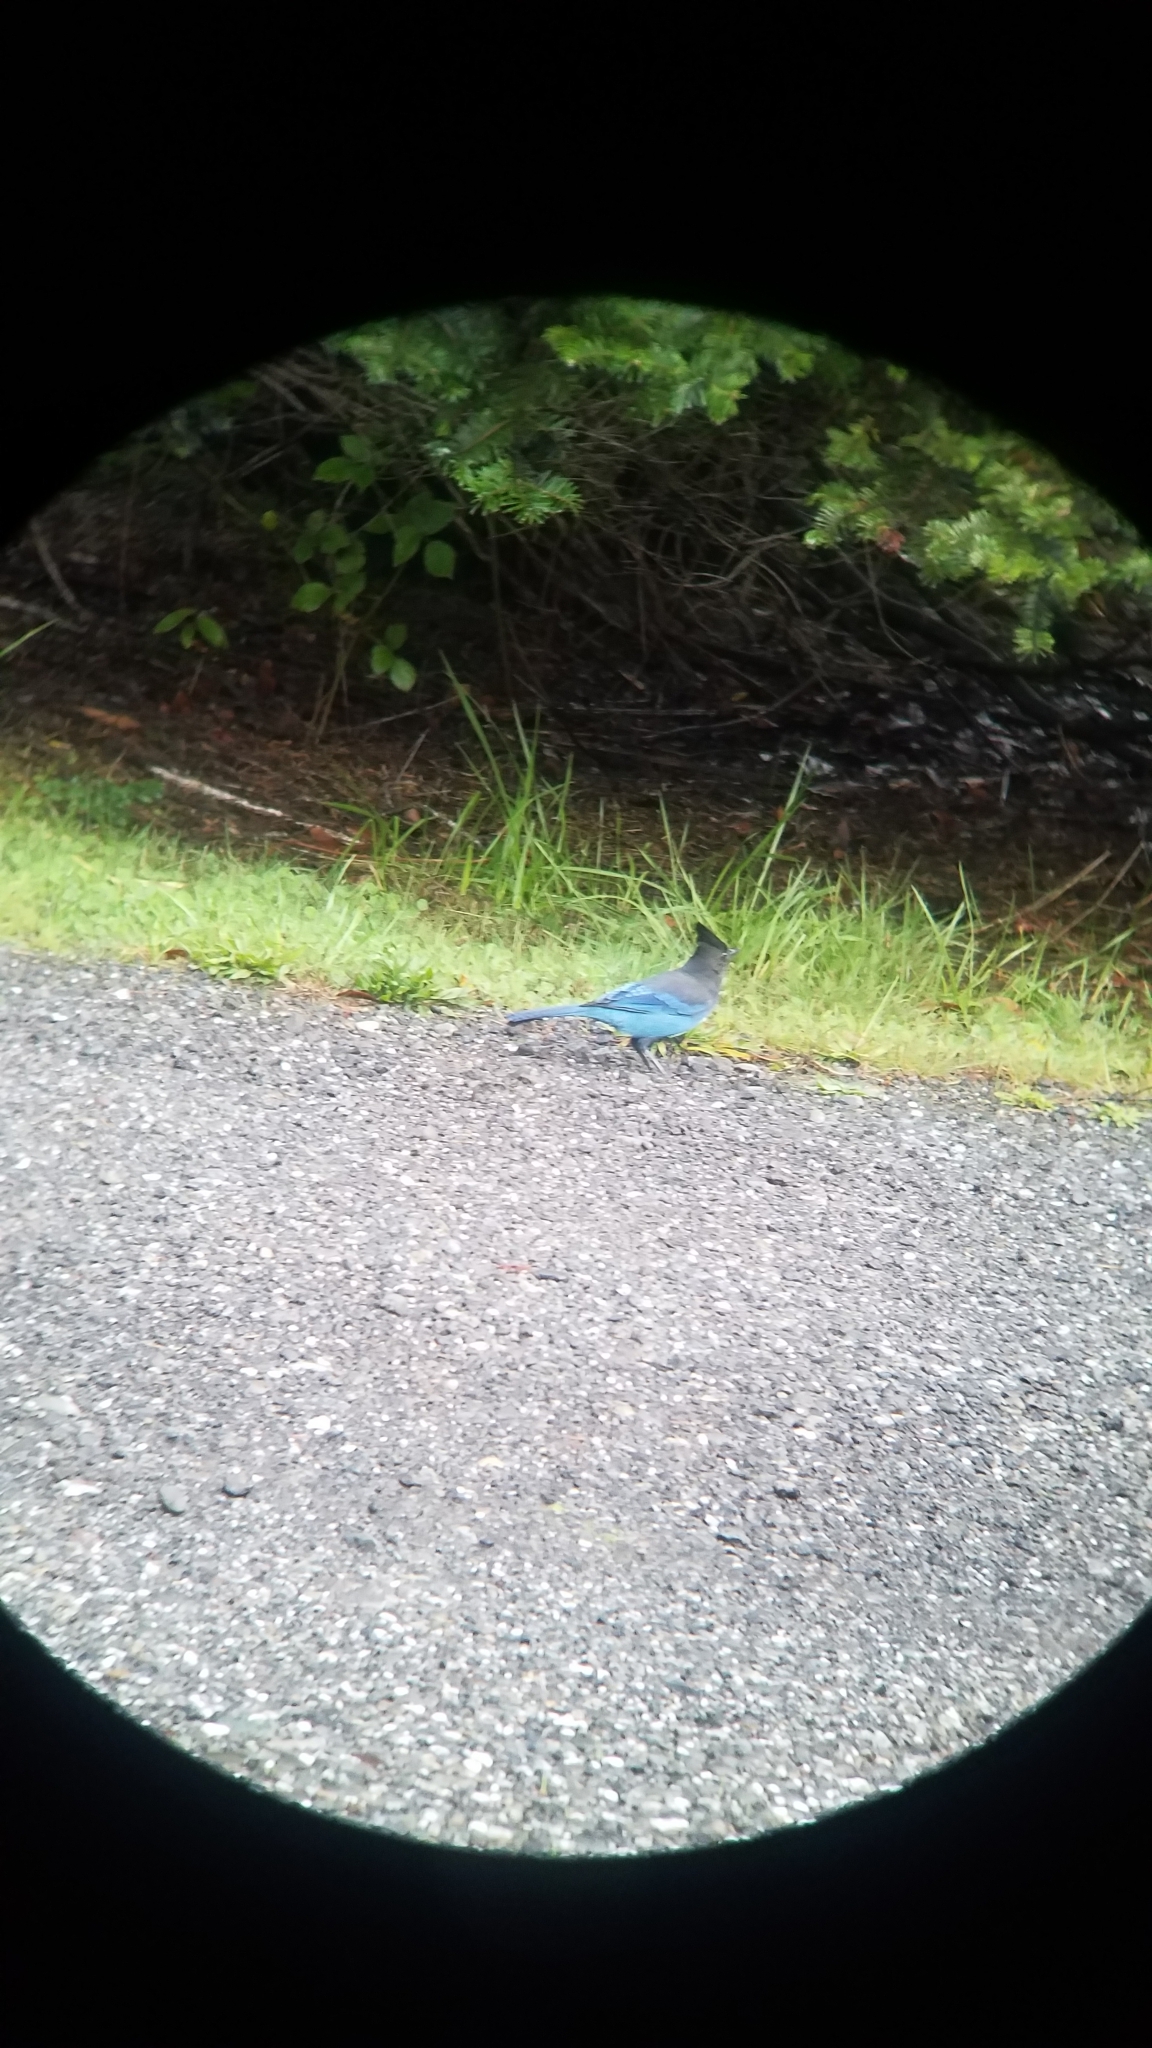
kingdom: Animalia
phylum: Chordata
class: Aves
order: Passeriformes
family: Corvidae
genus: Cyanocitta
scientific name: Cyanocitta stelleri
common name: Steller's jay
